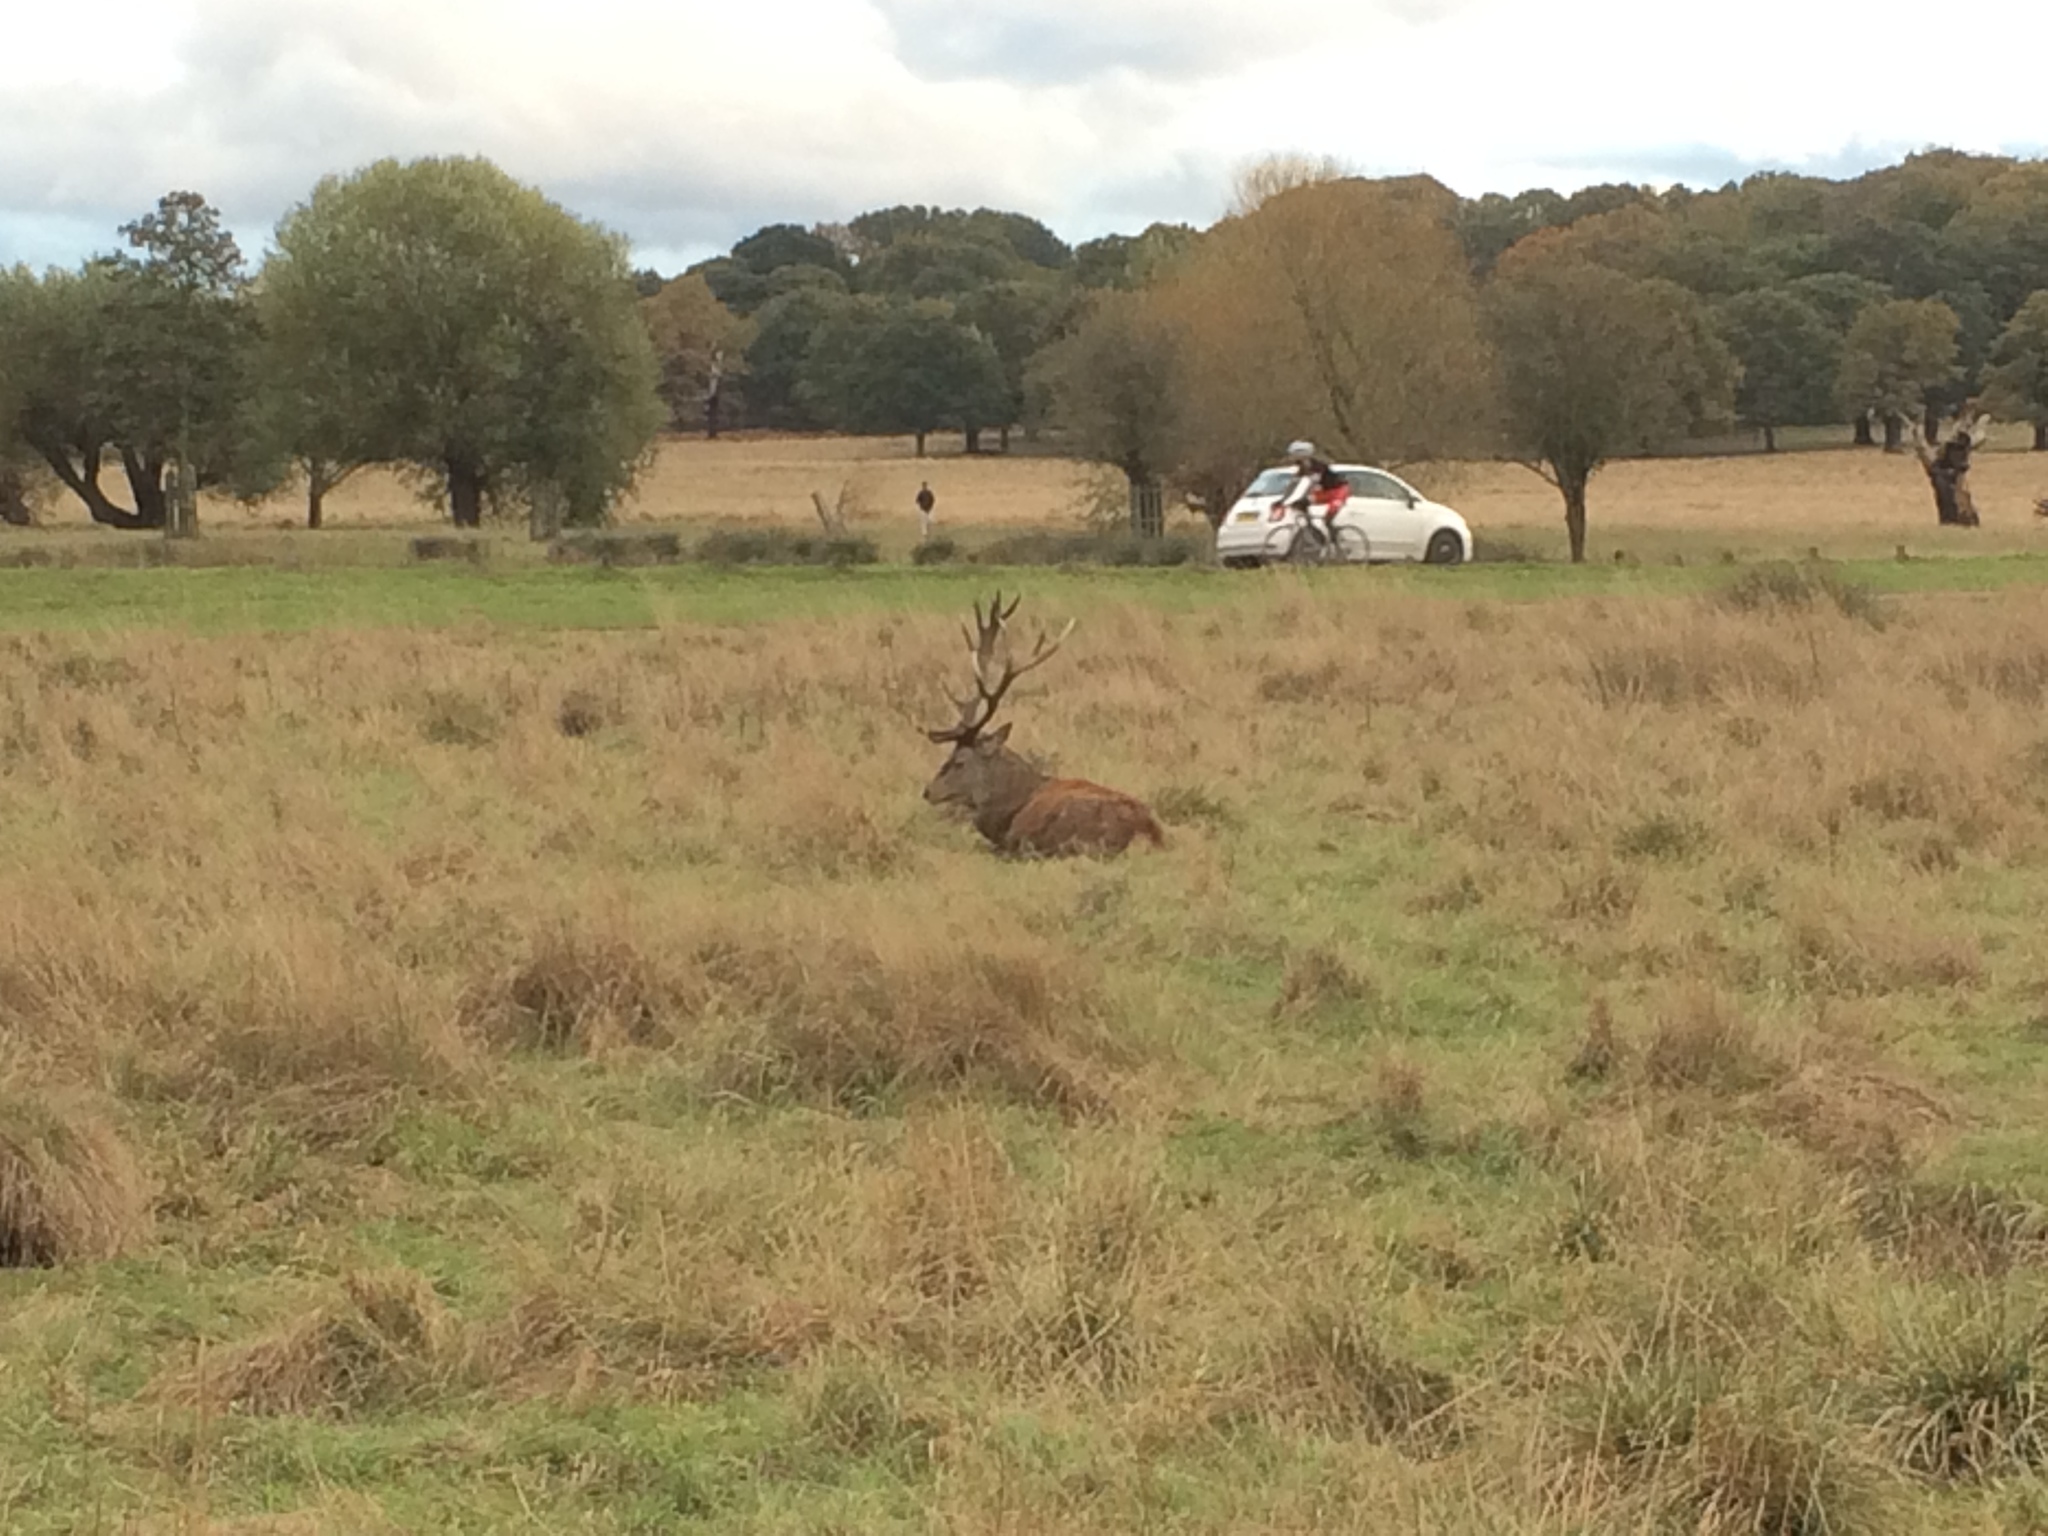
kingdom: Animalia
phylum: Chordata
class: Mammalia
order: Artiodactyla
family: Cervidae
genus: Cervus
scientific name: Cervus elaphus
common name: Red deer
